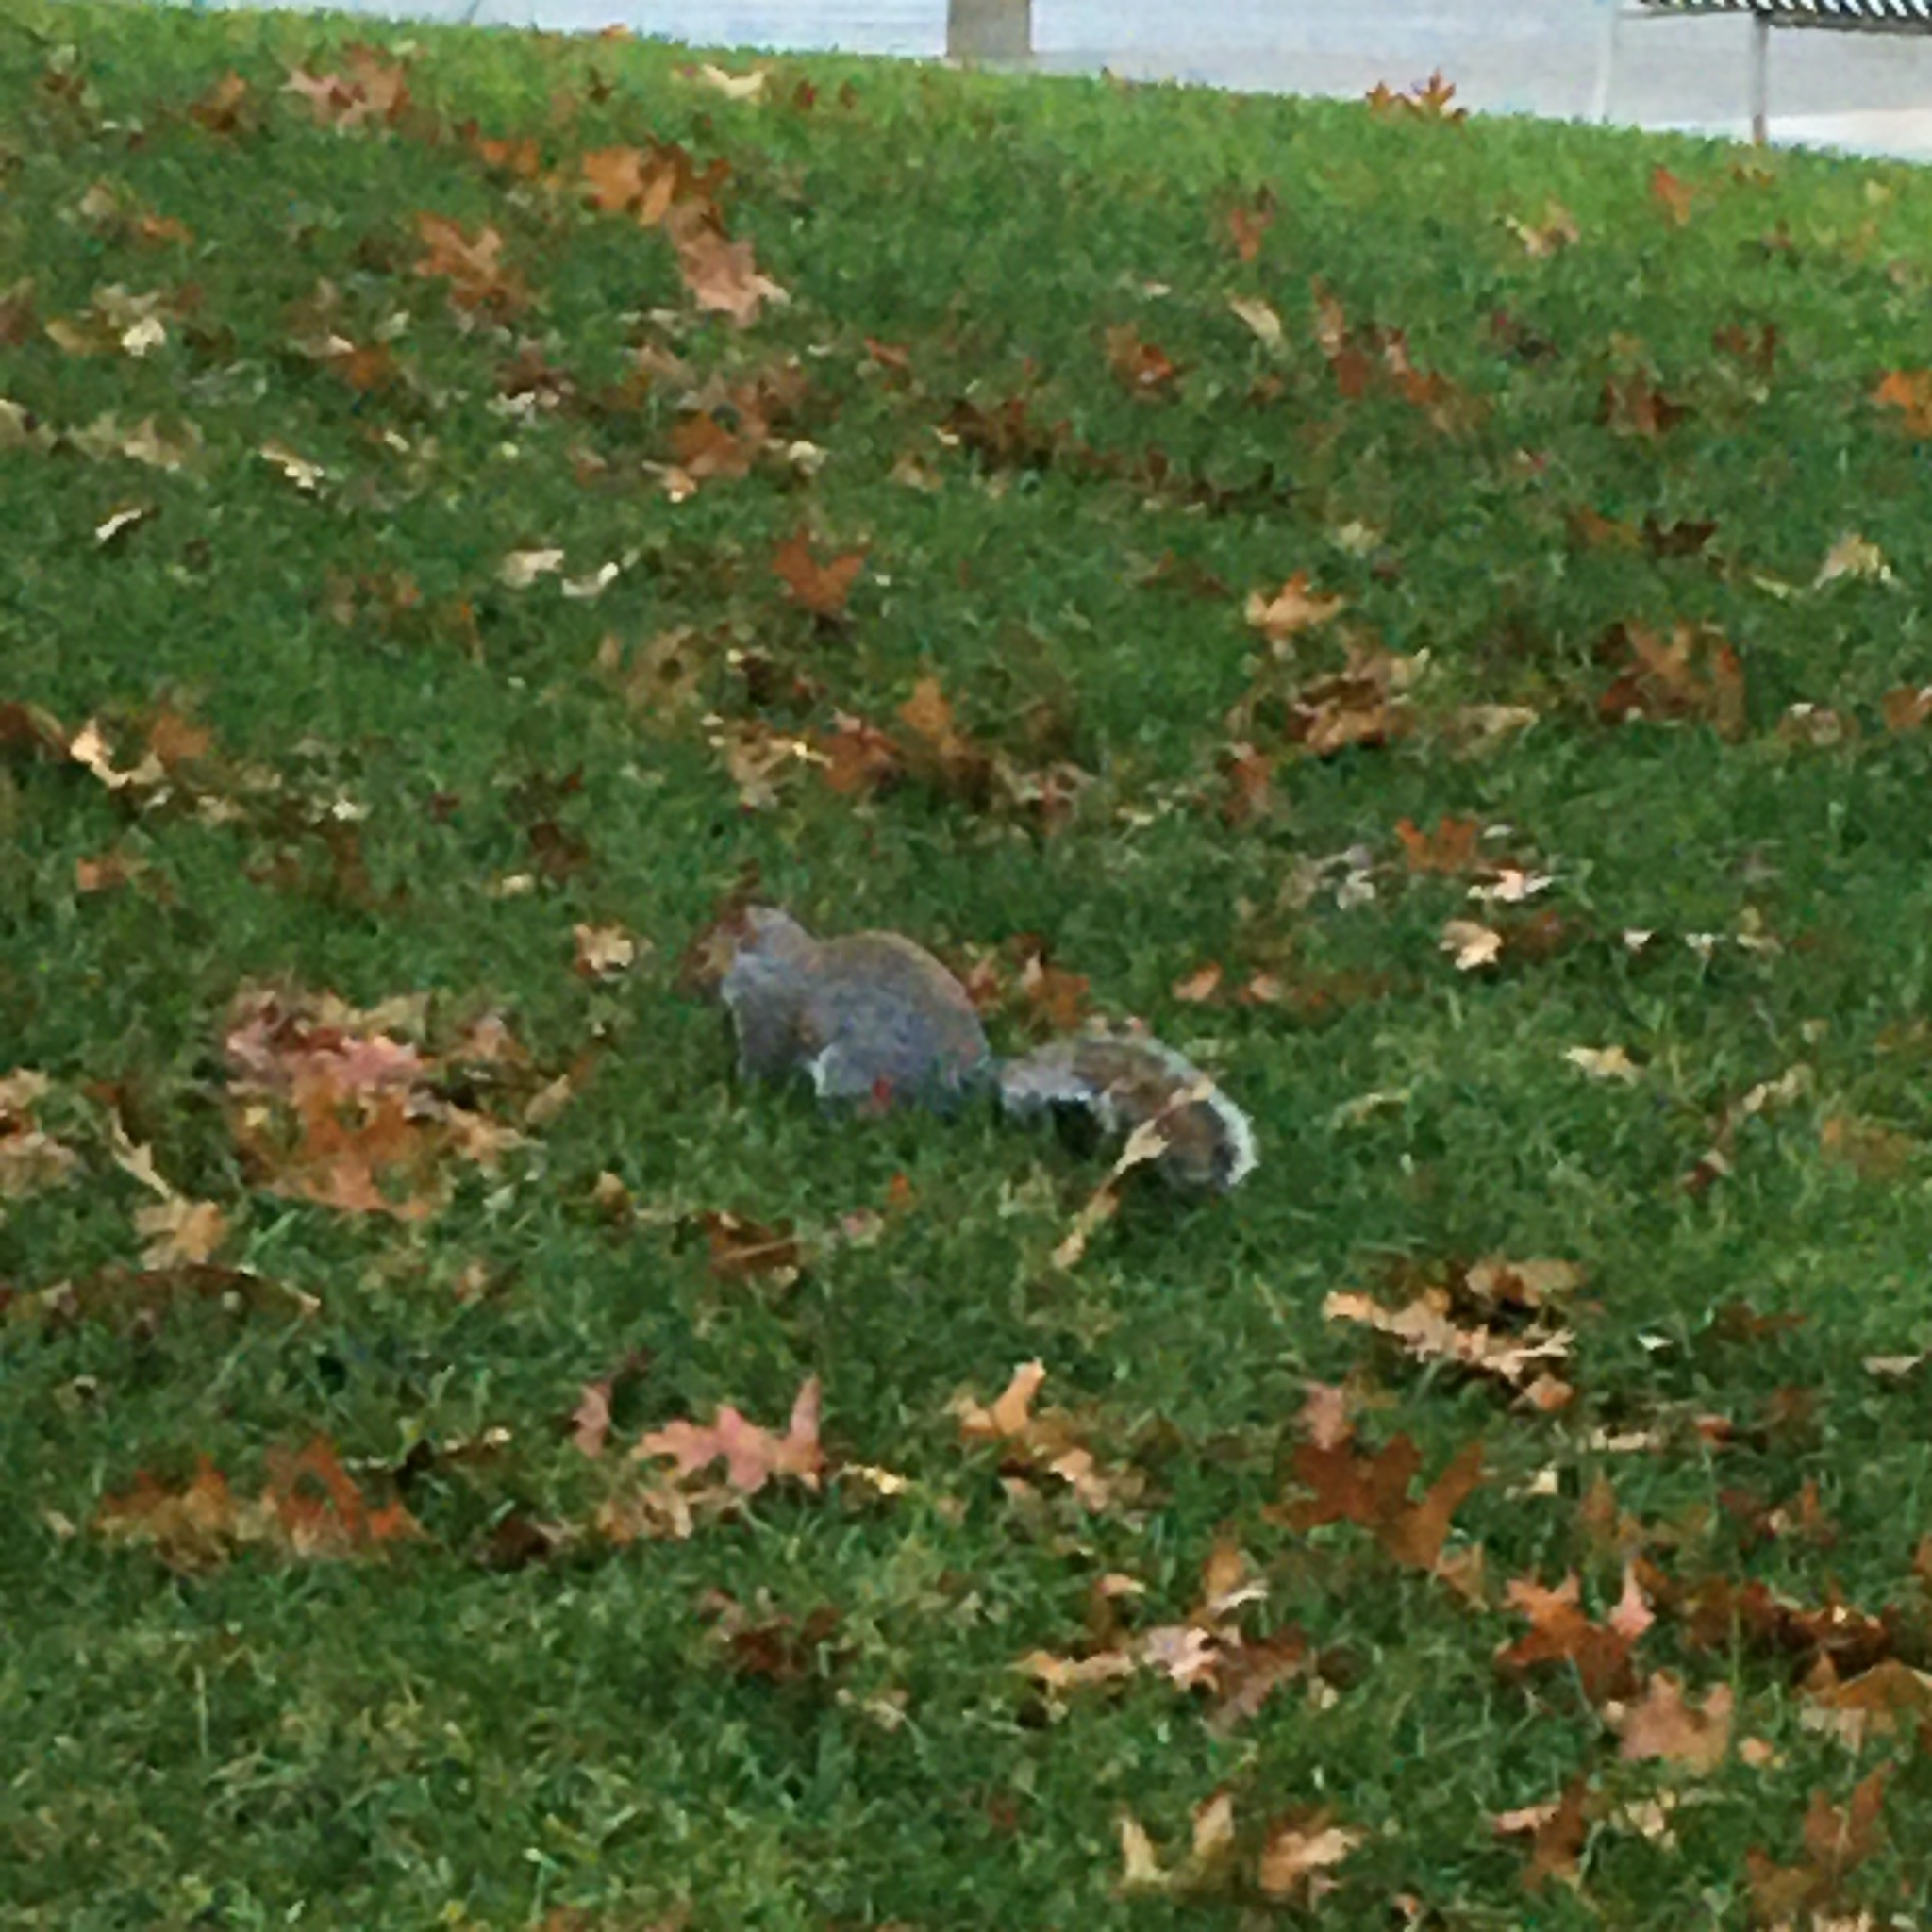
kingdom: Animalia
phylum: Chordata
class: Mammalia
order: Rodentia
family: Sciuridae
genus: Sciurus
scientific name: Sciurus carolinensis
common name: Eastern gray squirrel
